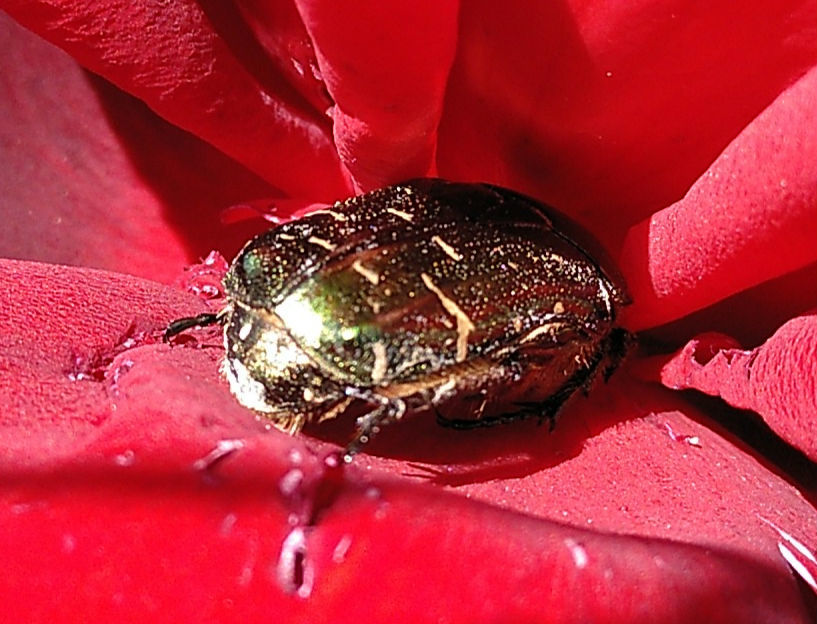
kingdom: Animalia
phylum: Arthropoda
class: Insecta
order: Coleoptera
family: Scarabaeidae
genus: Cetonia
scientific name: Cetonia aurata
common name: Rose chafer
